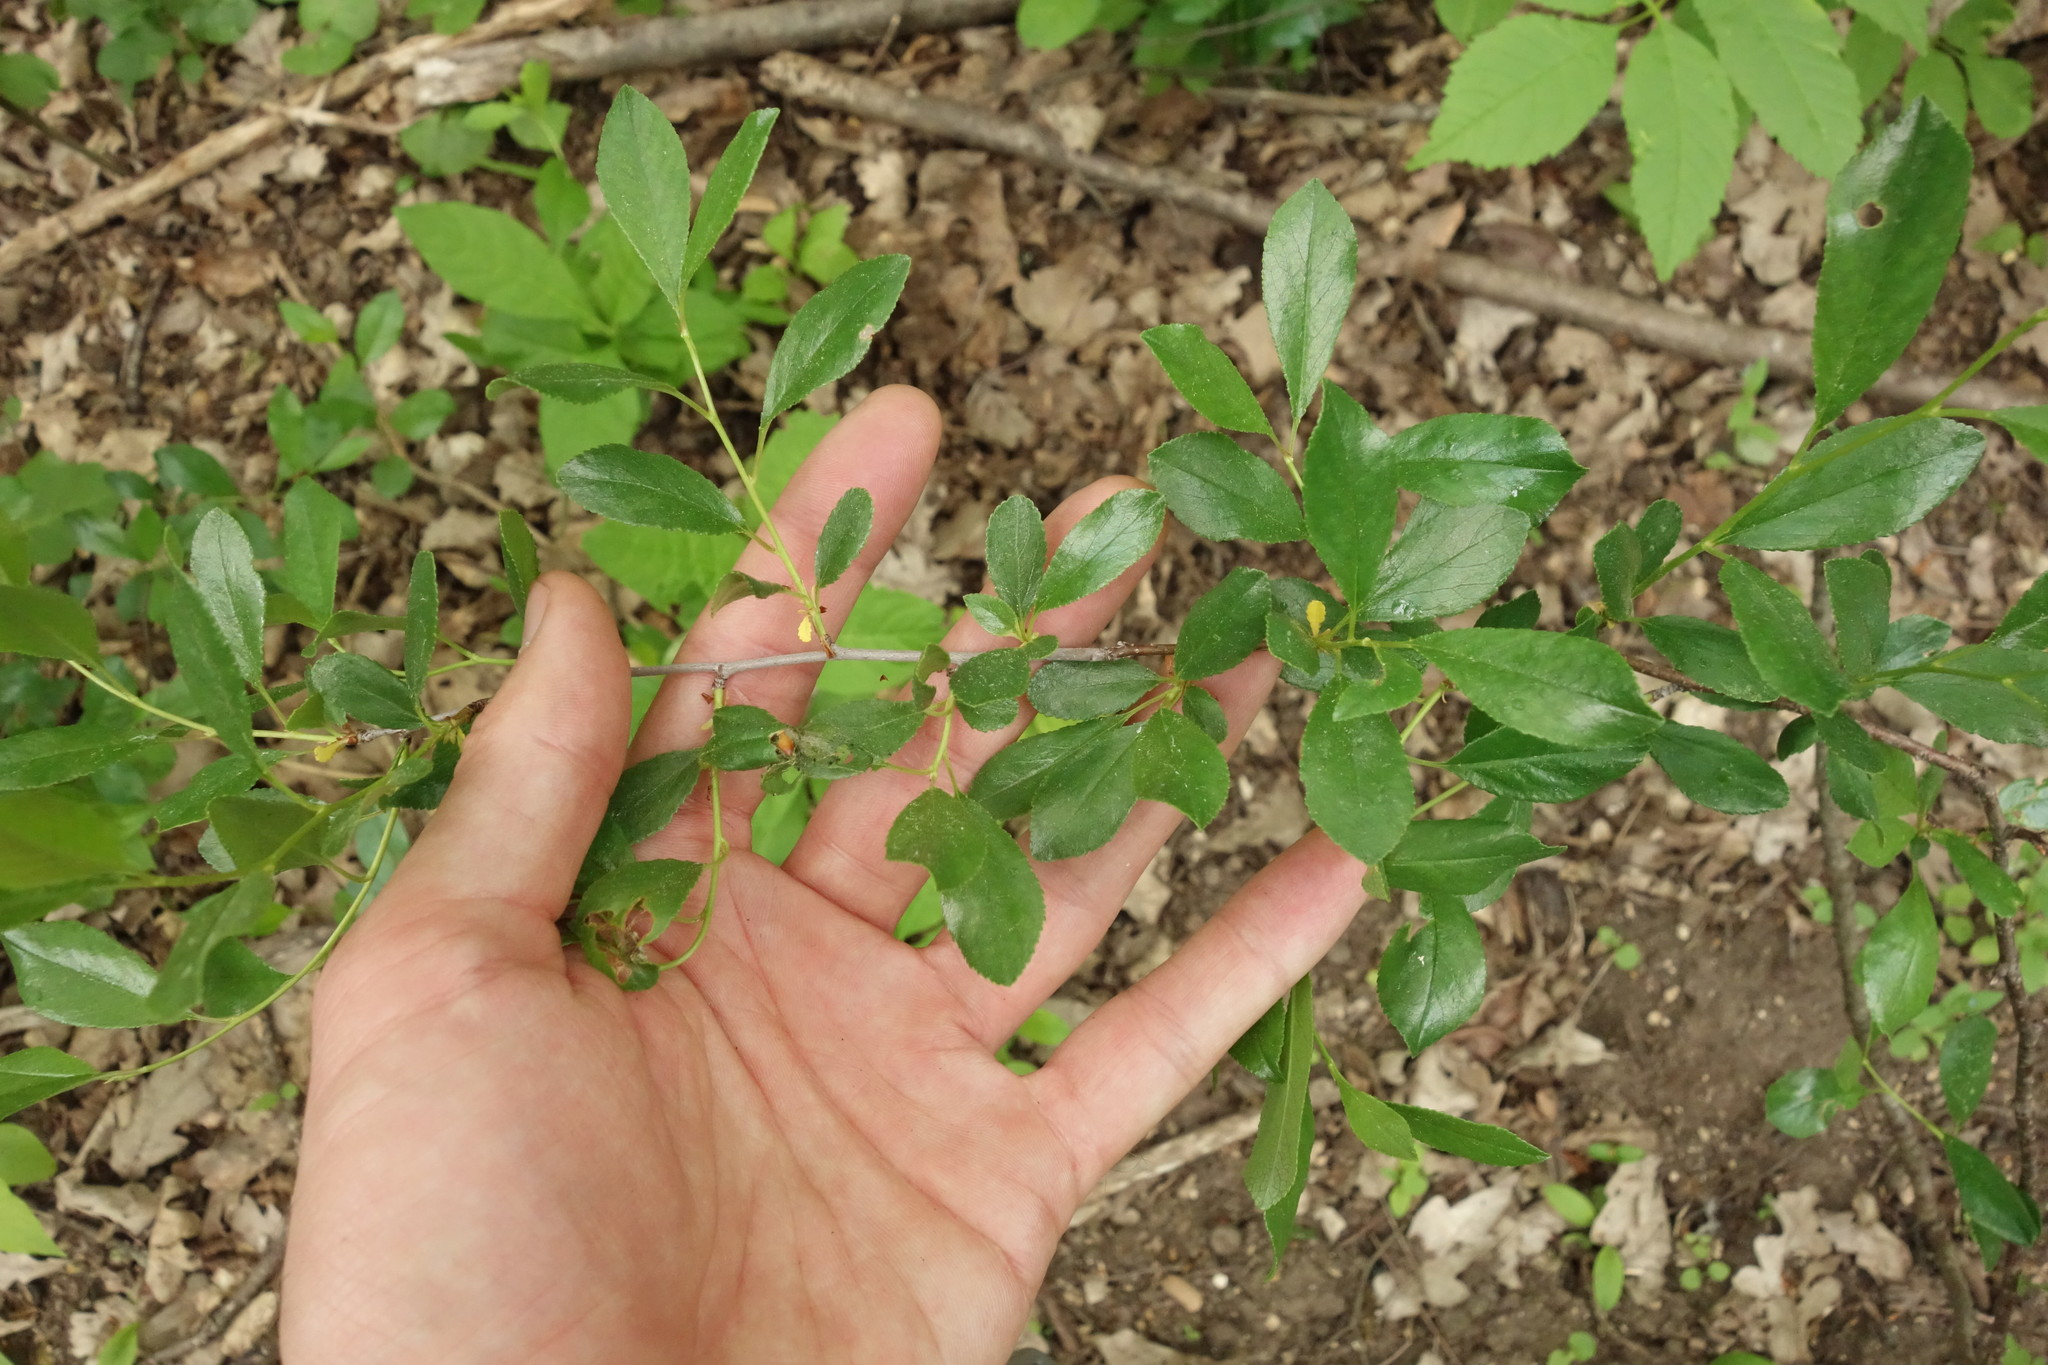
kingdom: Plantae
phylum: Tracheophyta
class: Magnoliopsida
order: Rosales
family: Rosaceae
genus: Prunus
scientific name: Prunus fruticosa
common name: European dwarf cherry
